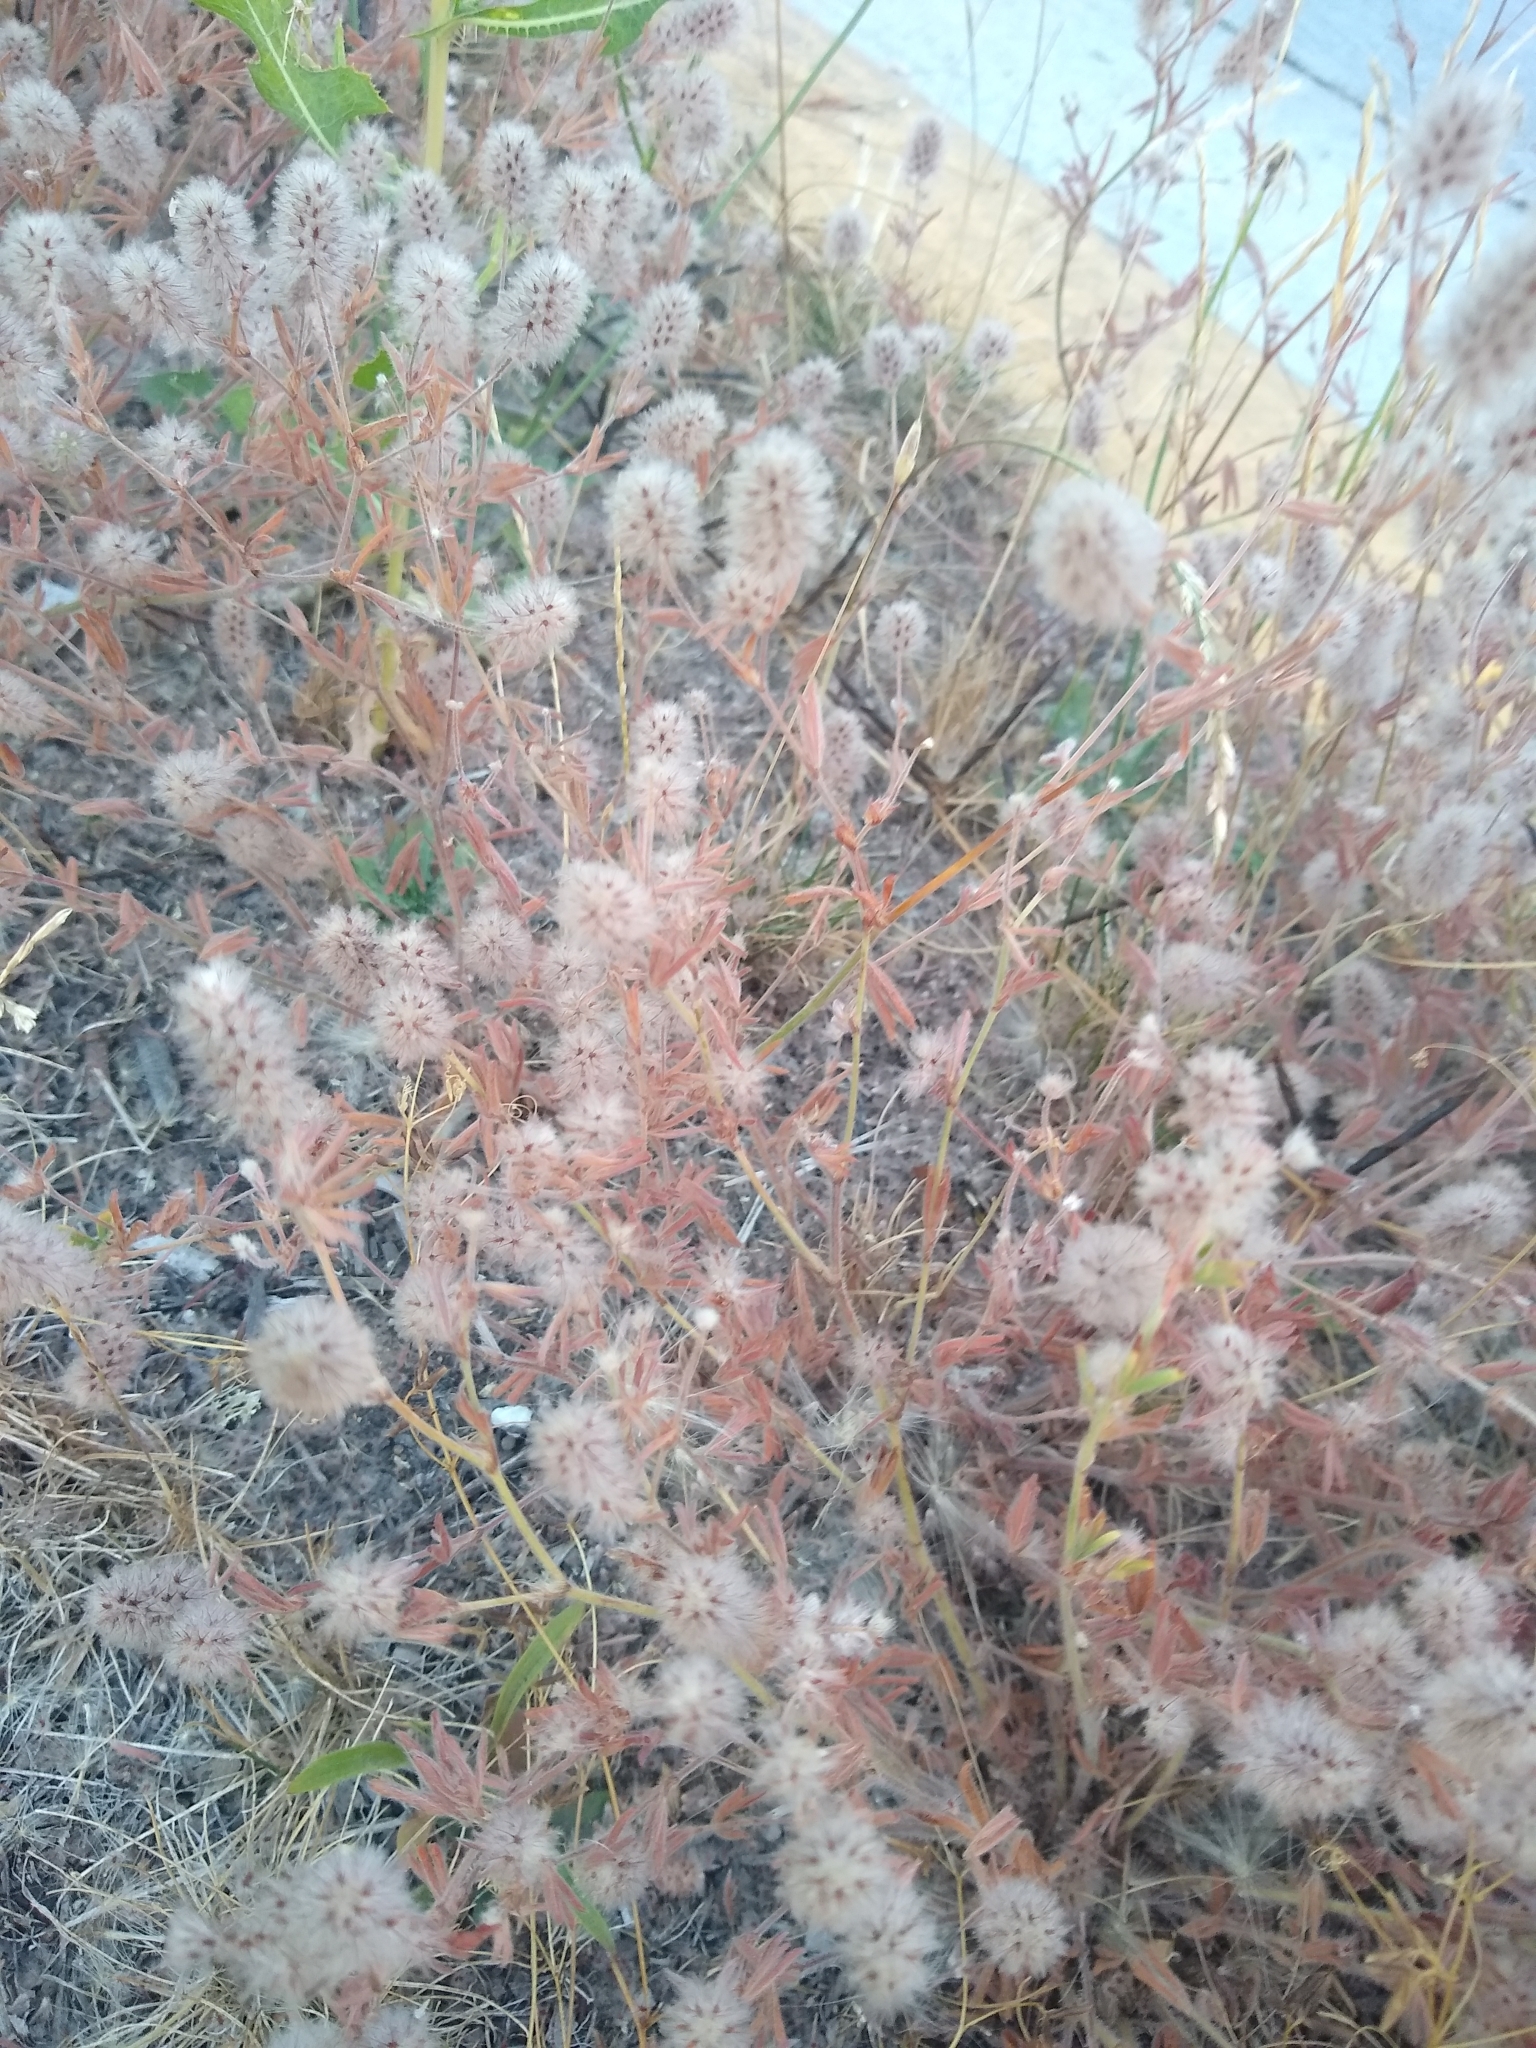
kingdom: Plantae
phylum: Tracheophyta
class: Magnoliopsida
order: Fabales
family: Fabaceae
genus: Trifolium
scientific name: Trifolium arvense
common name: Hare's-foot clover
